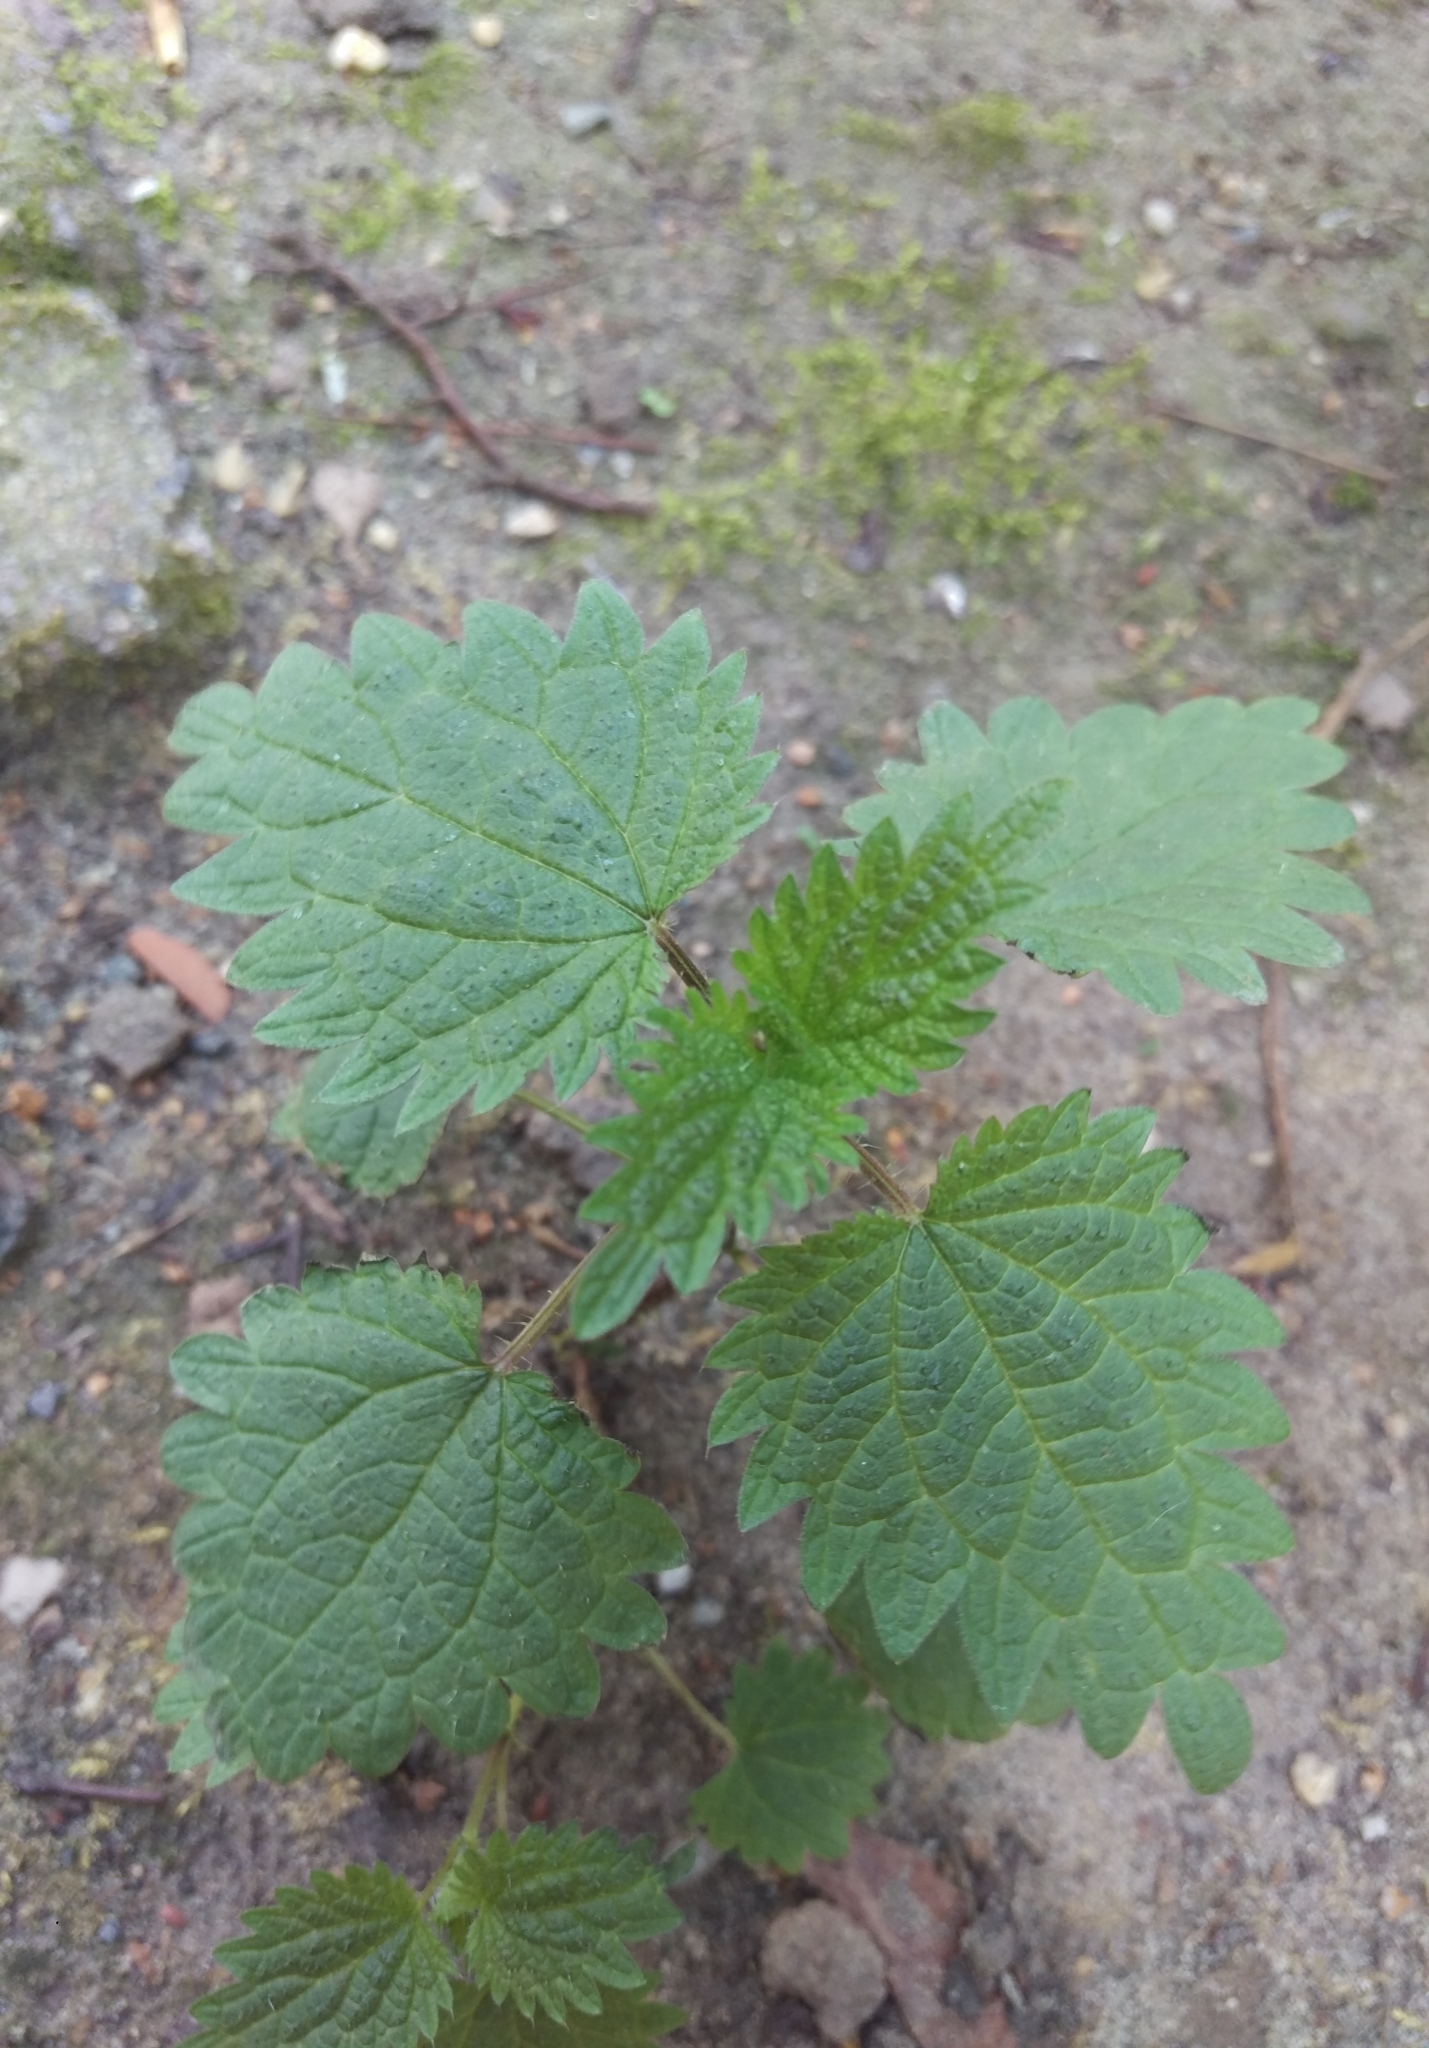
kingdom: Plantae
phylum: Tracheophyta
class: Magnoliopsida
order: Rosales
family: Urticaceae
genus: Urtica
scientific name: Urtica dioica
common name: Common nettle
